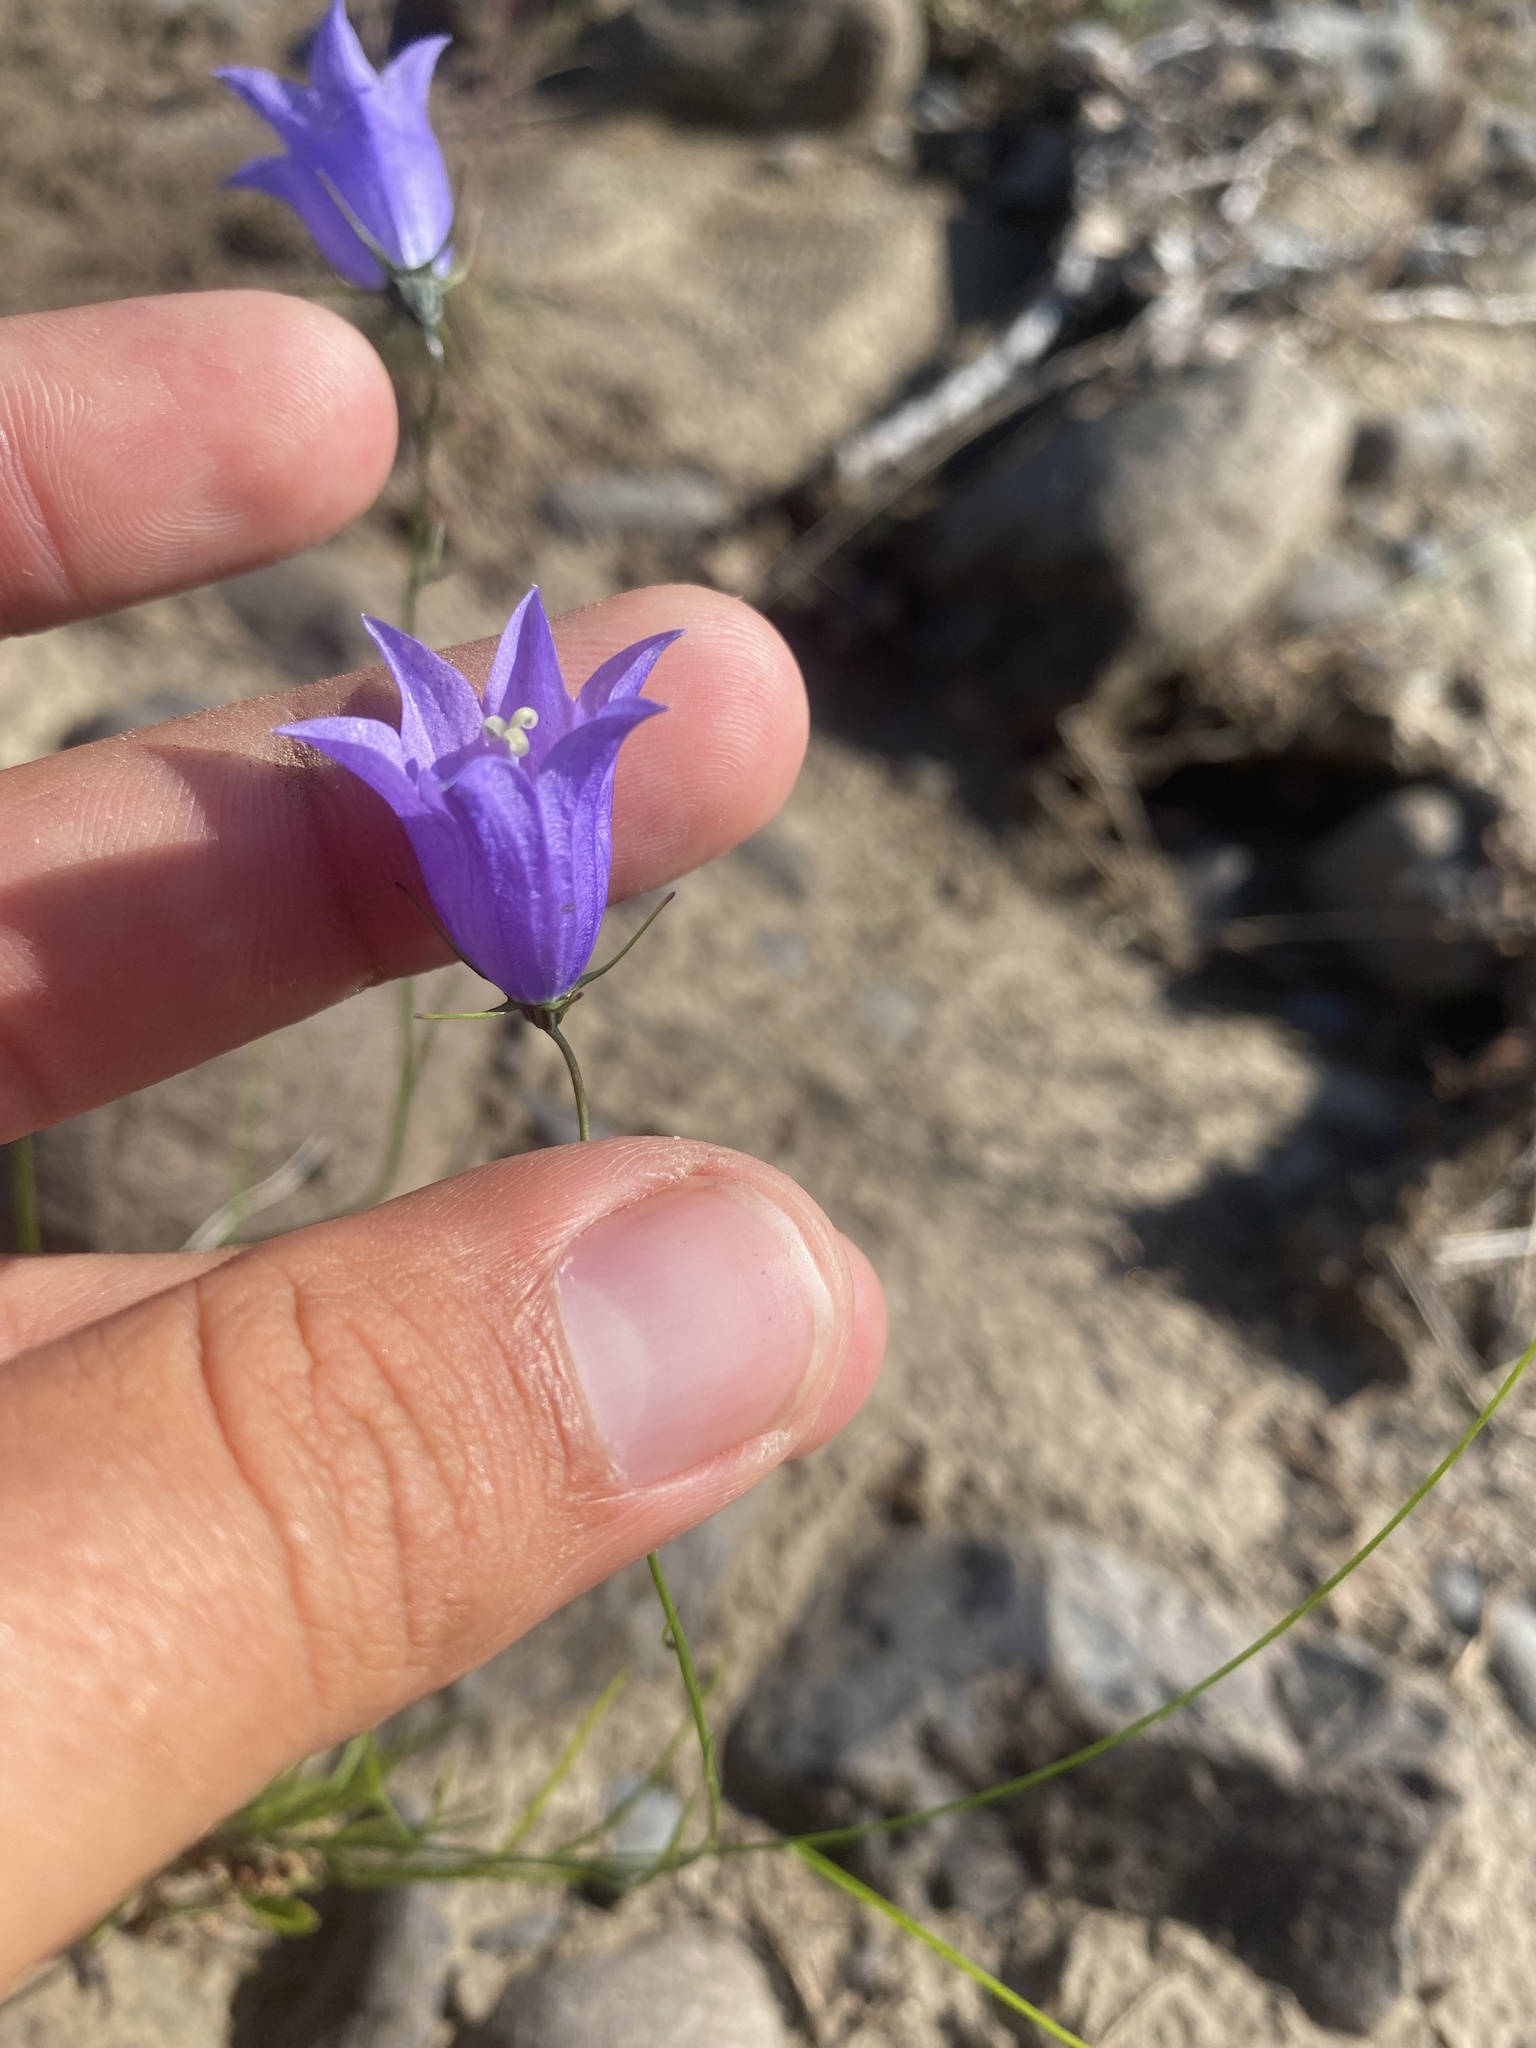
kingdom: Plantae
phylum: Tracheophyta
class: Magnoliopsida
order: Asterales
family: Campanulaceae
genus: Campanula
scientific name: Campanula rotundifolia
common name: Harebell
